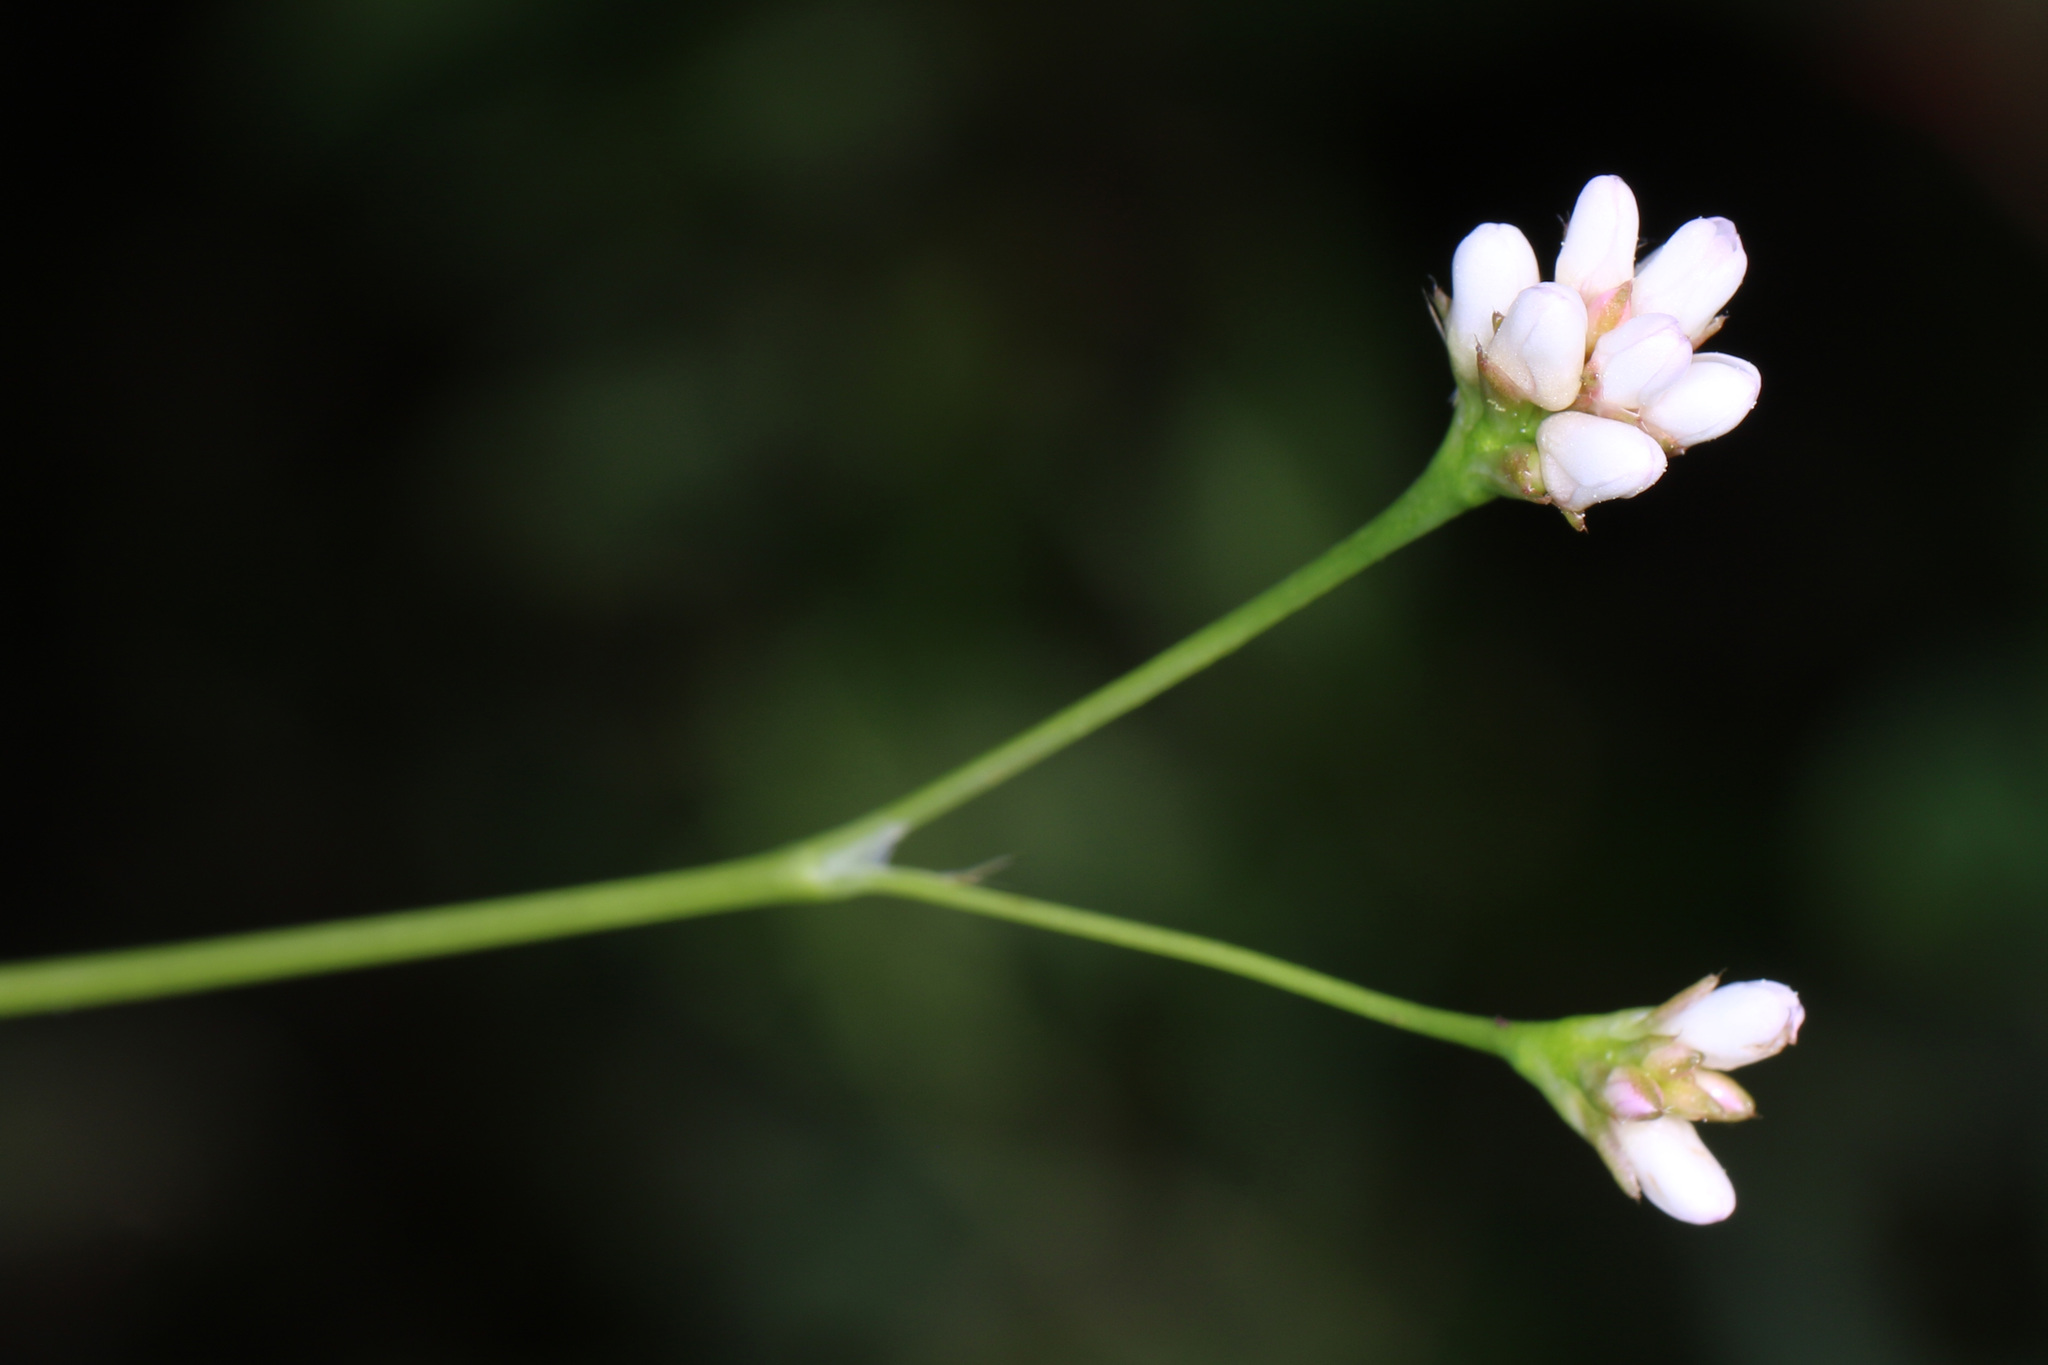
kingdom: Plantae
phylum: Tracheophyta
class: Magnoliopsida
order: Caryophyllales
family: Polygonaceae
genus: Persicaria
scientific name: Persicaria sagittata
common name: American tearthumb
